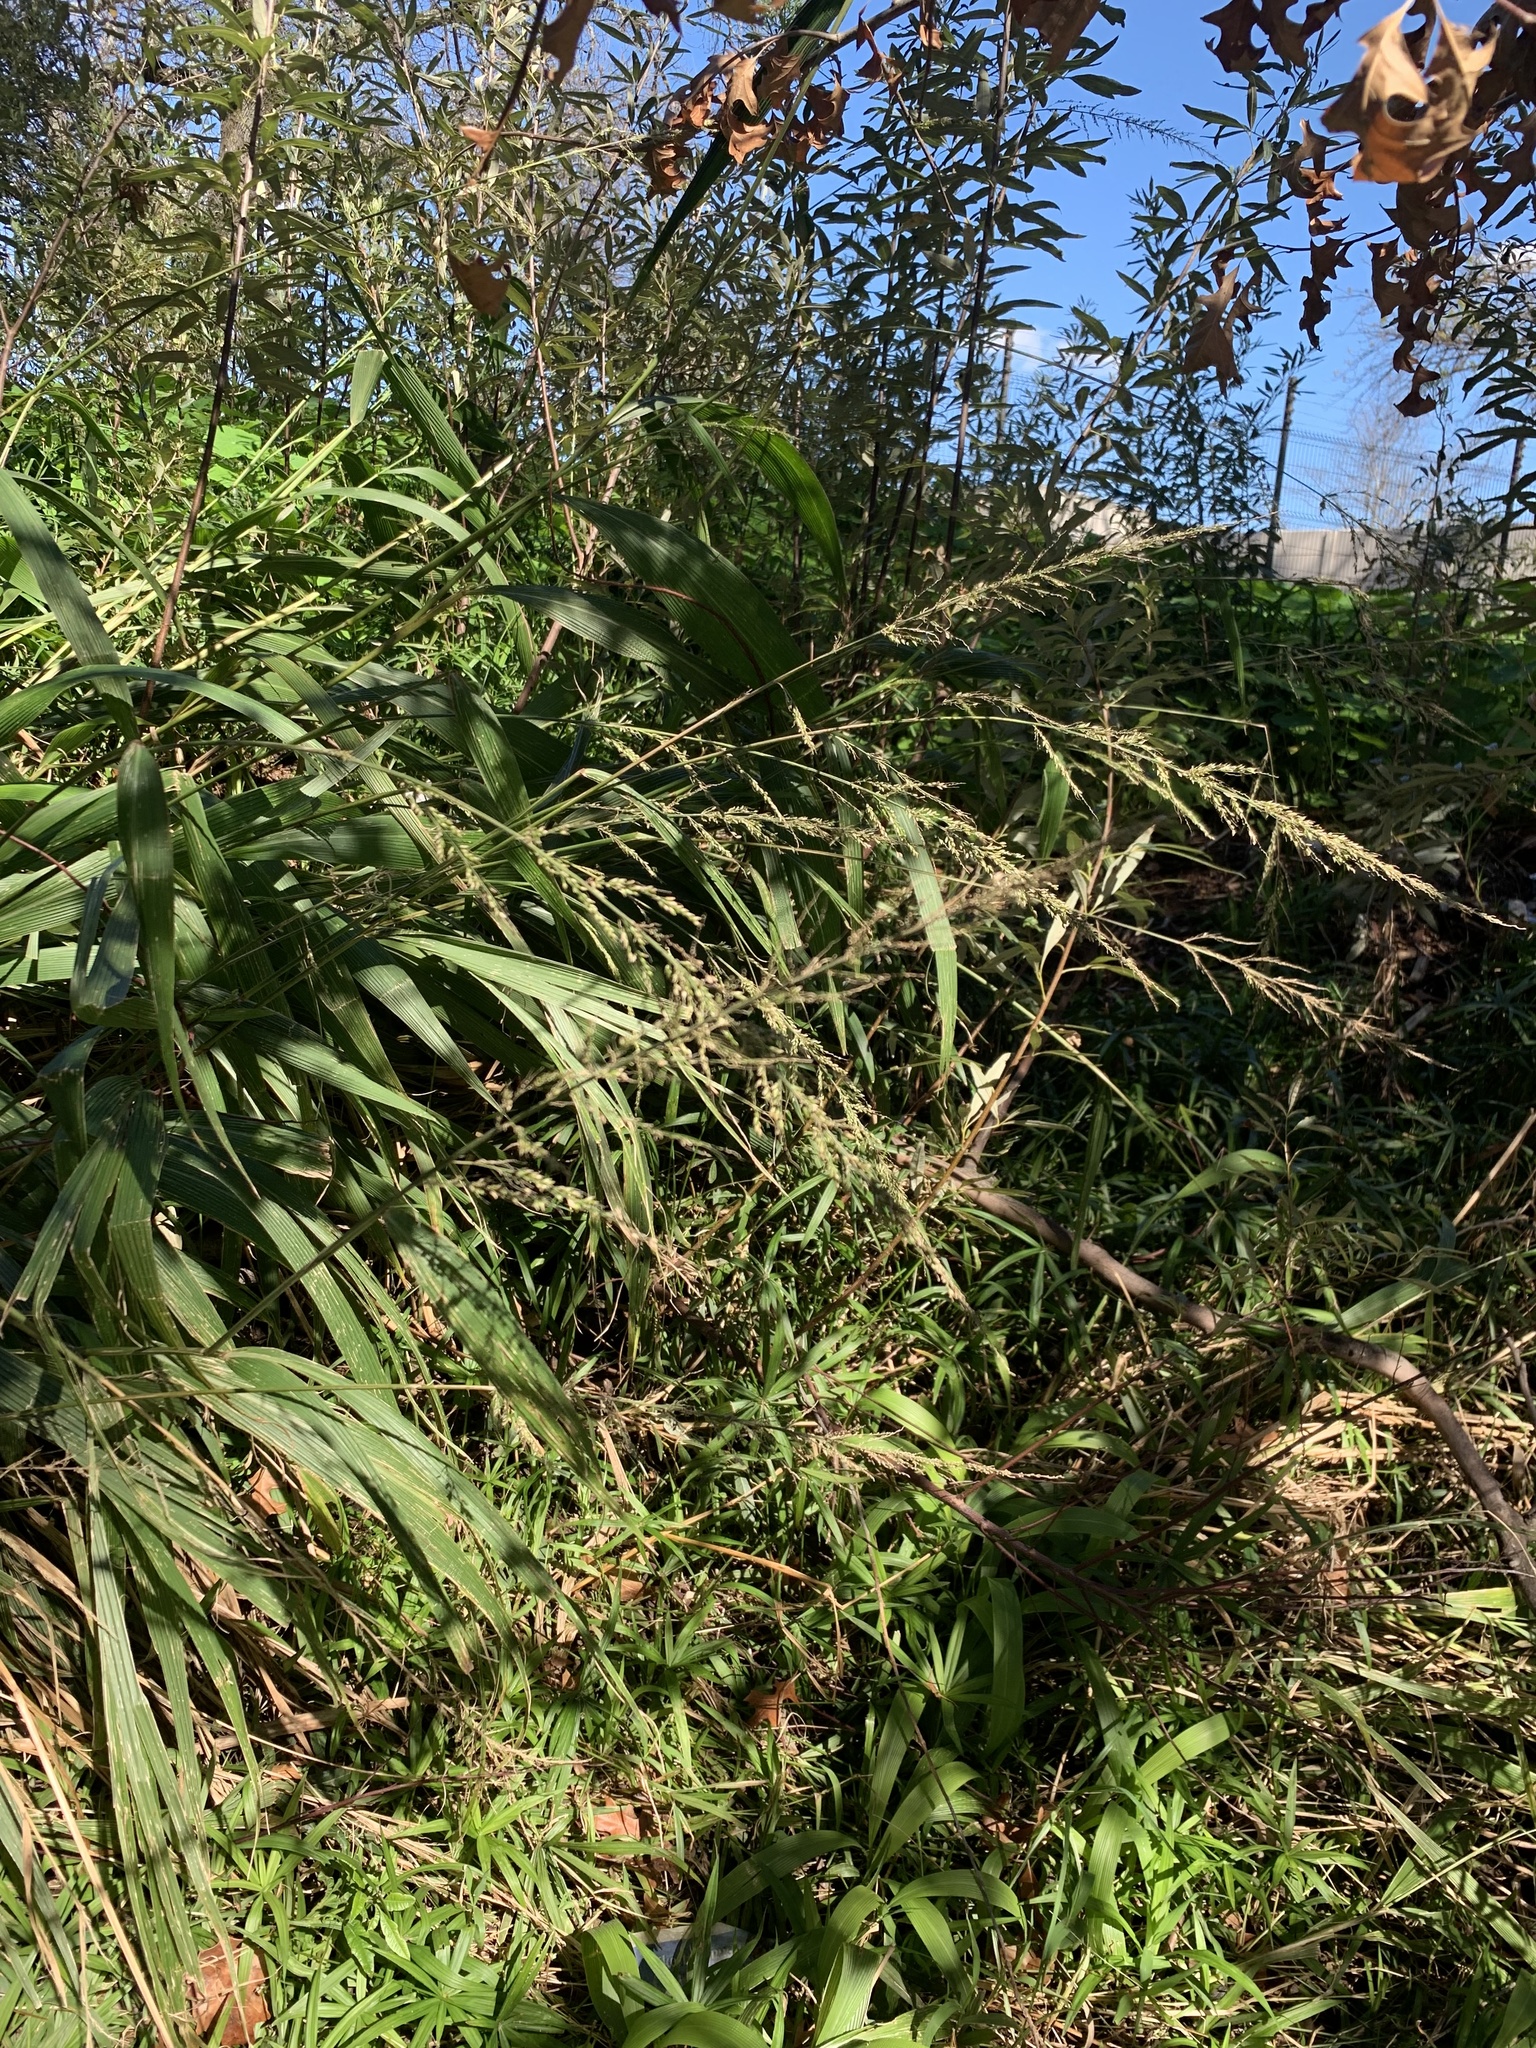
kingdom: Plantae
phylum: Tracheophyta
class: Liliopsida
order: Poales
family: Poaceae
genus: Setaria
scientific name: Setaria megaphylla
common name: Bigleaf bristlegrass
